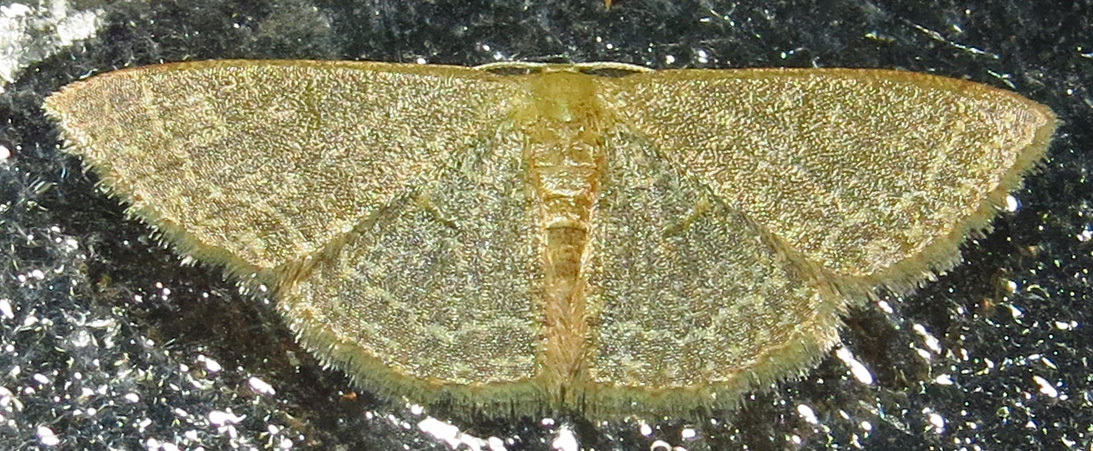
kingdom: Animalia
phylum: Arthropoda
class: Insecta
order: Lepidoptera
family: Geometridae
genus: Pleuroprucha
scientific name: Pleuroprucha insulsaria
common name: Common tan wave
